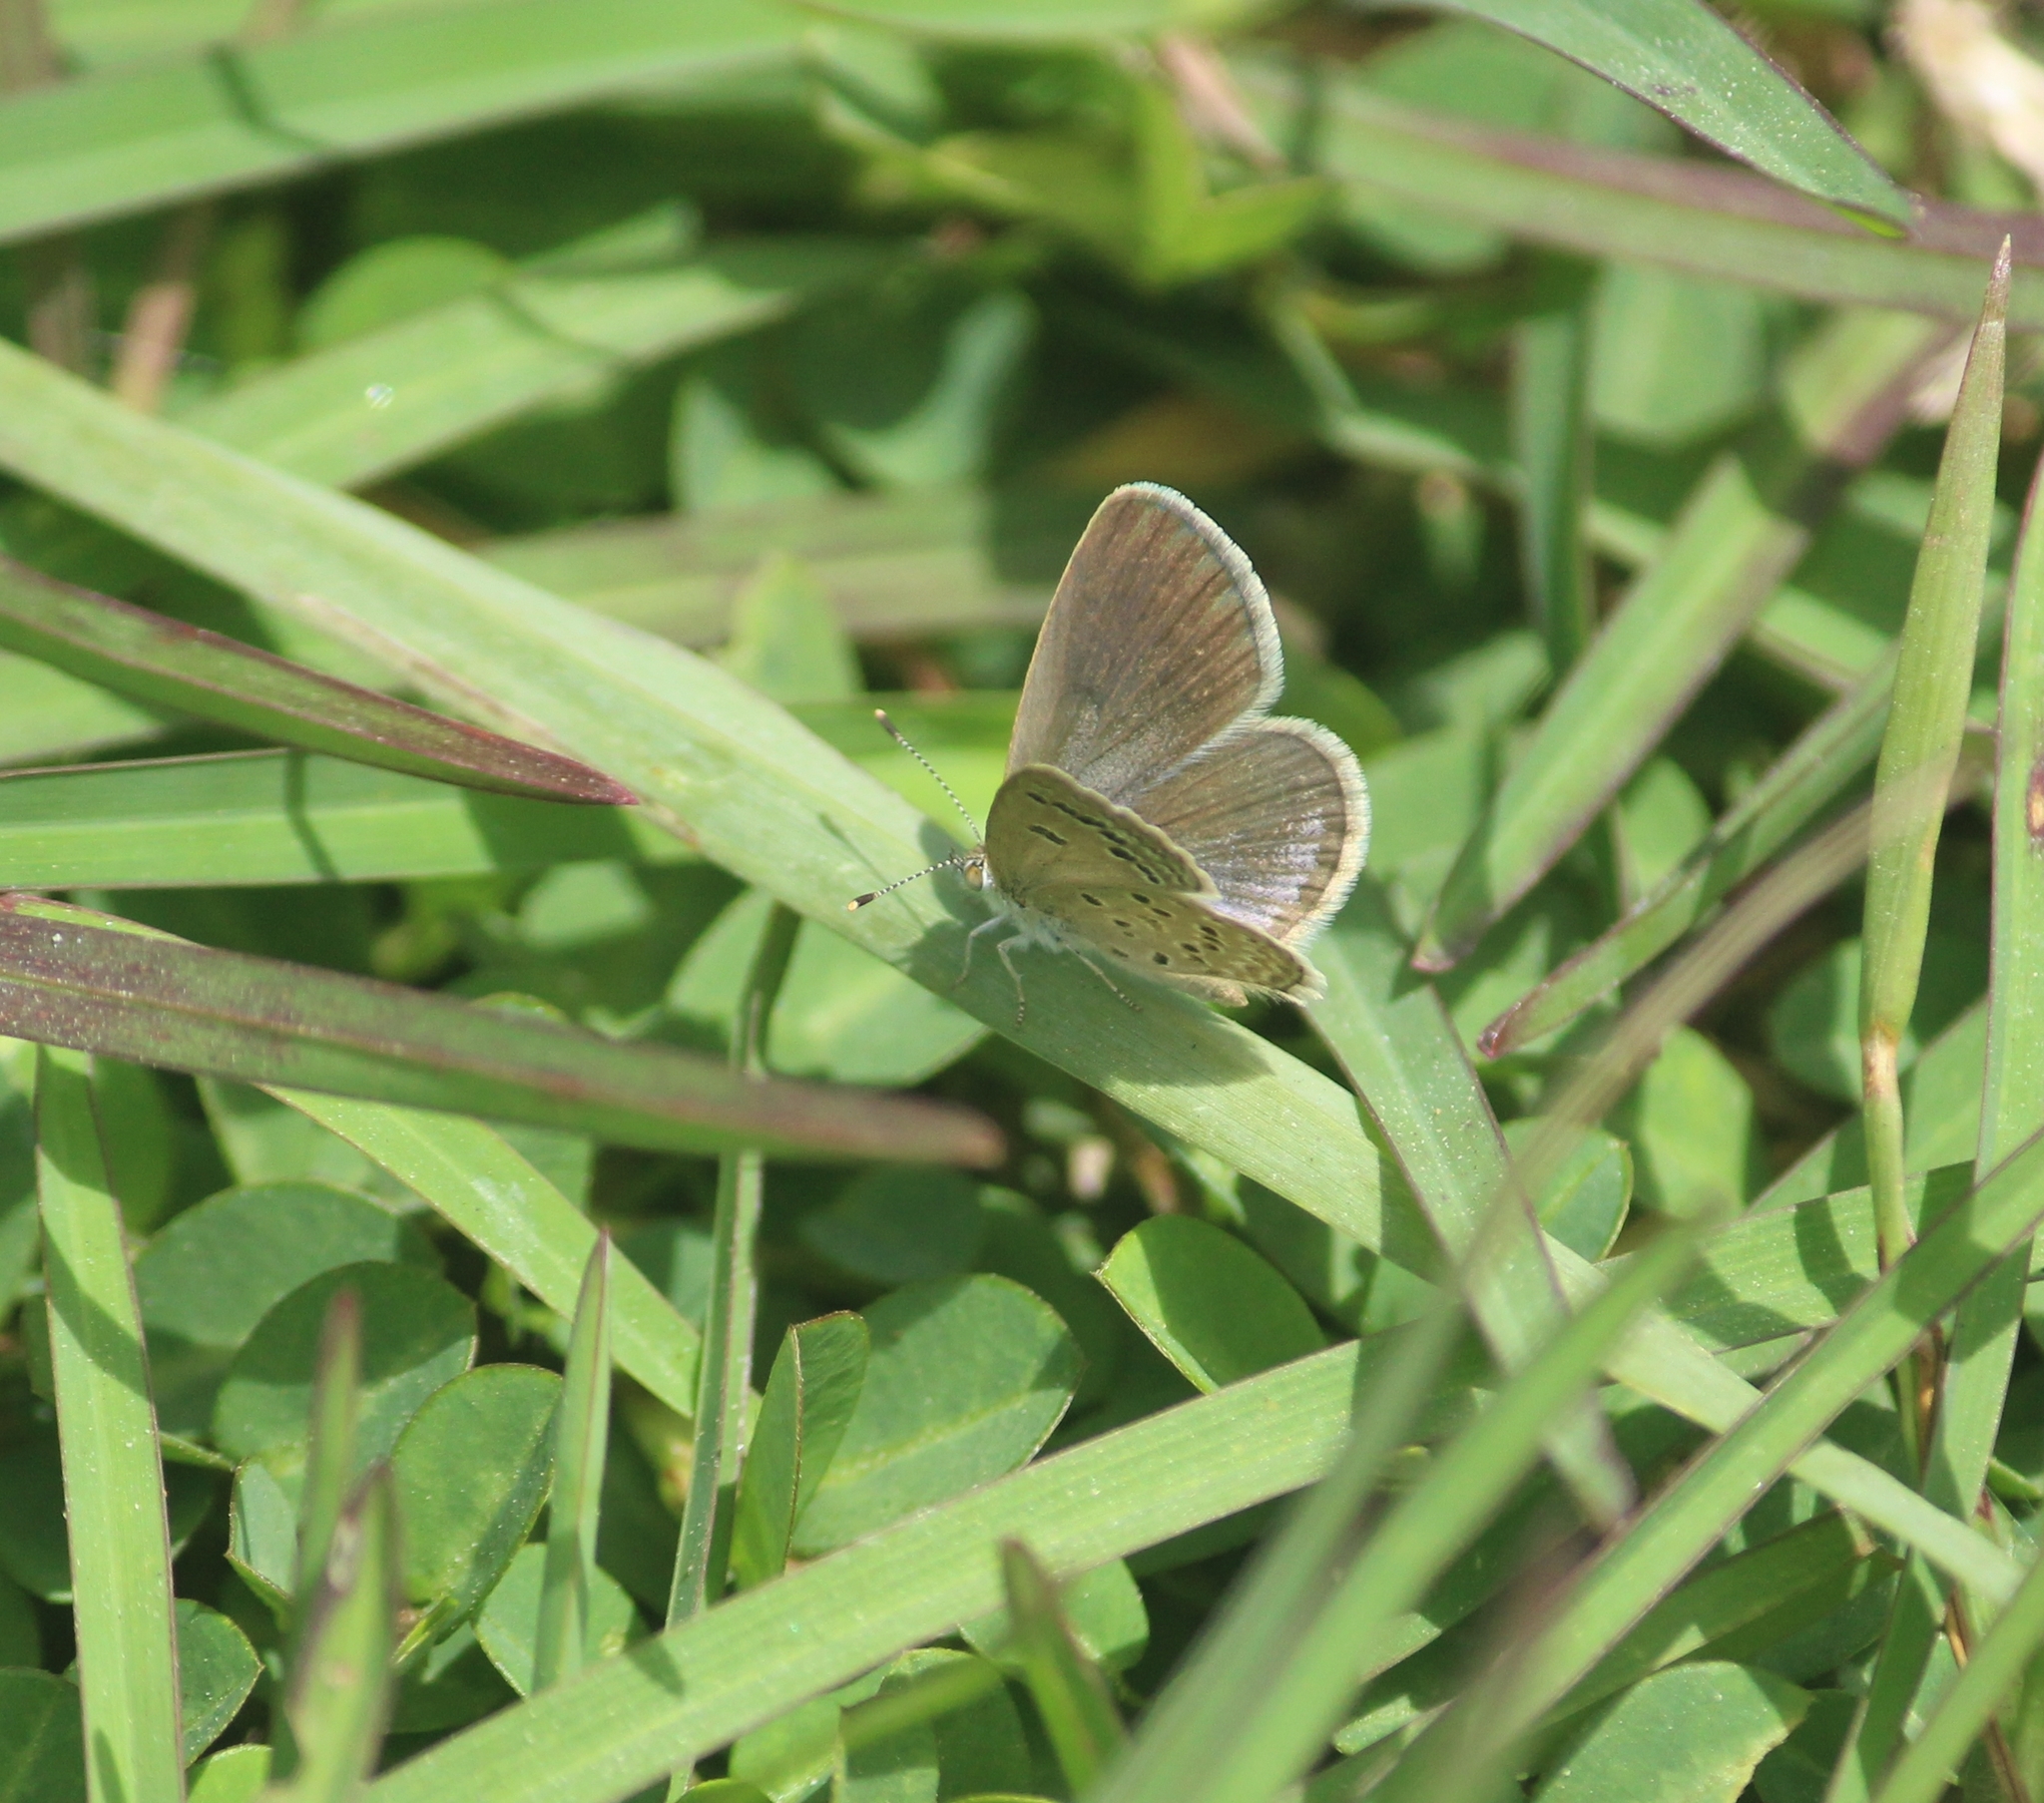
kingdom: Animalia
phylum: Arthropoda
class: Insecta
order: Lepidoptera
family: Lycaenidae
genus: Zizina
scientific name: Zizina otis
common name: Lesser grass blue
